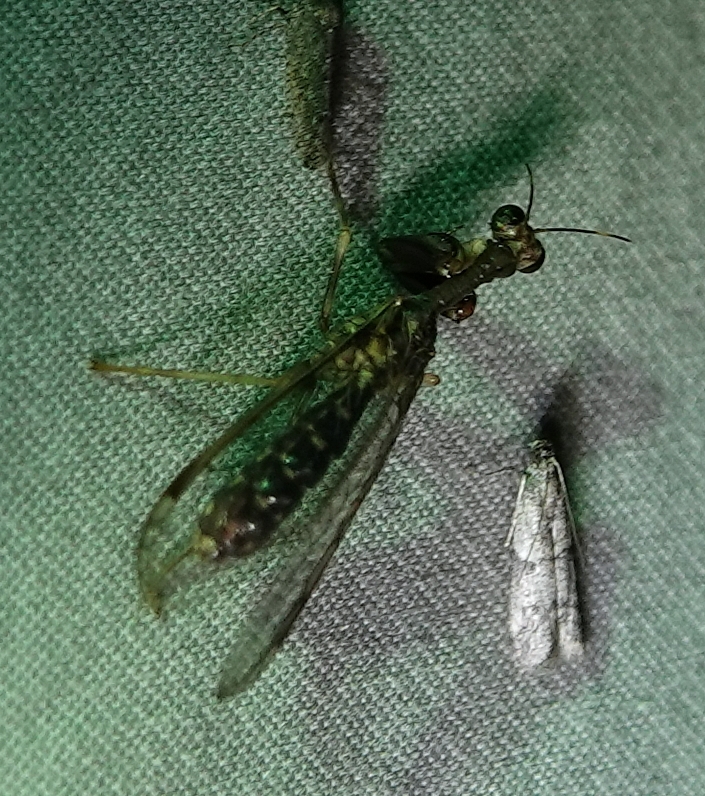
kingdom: Animalia
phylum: Arthropoda
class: Insecta
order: Neuroptera
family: Mantispidae
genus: Dicromantispa
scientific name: Dicromantispa sayi
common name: Say's mantidfly
